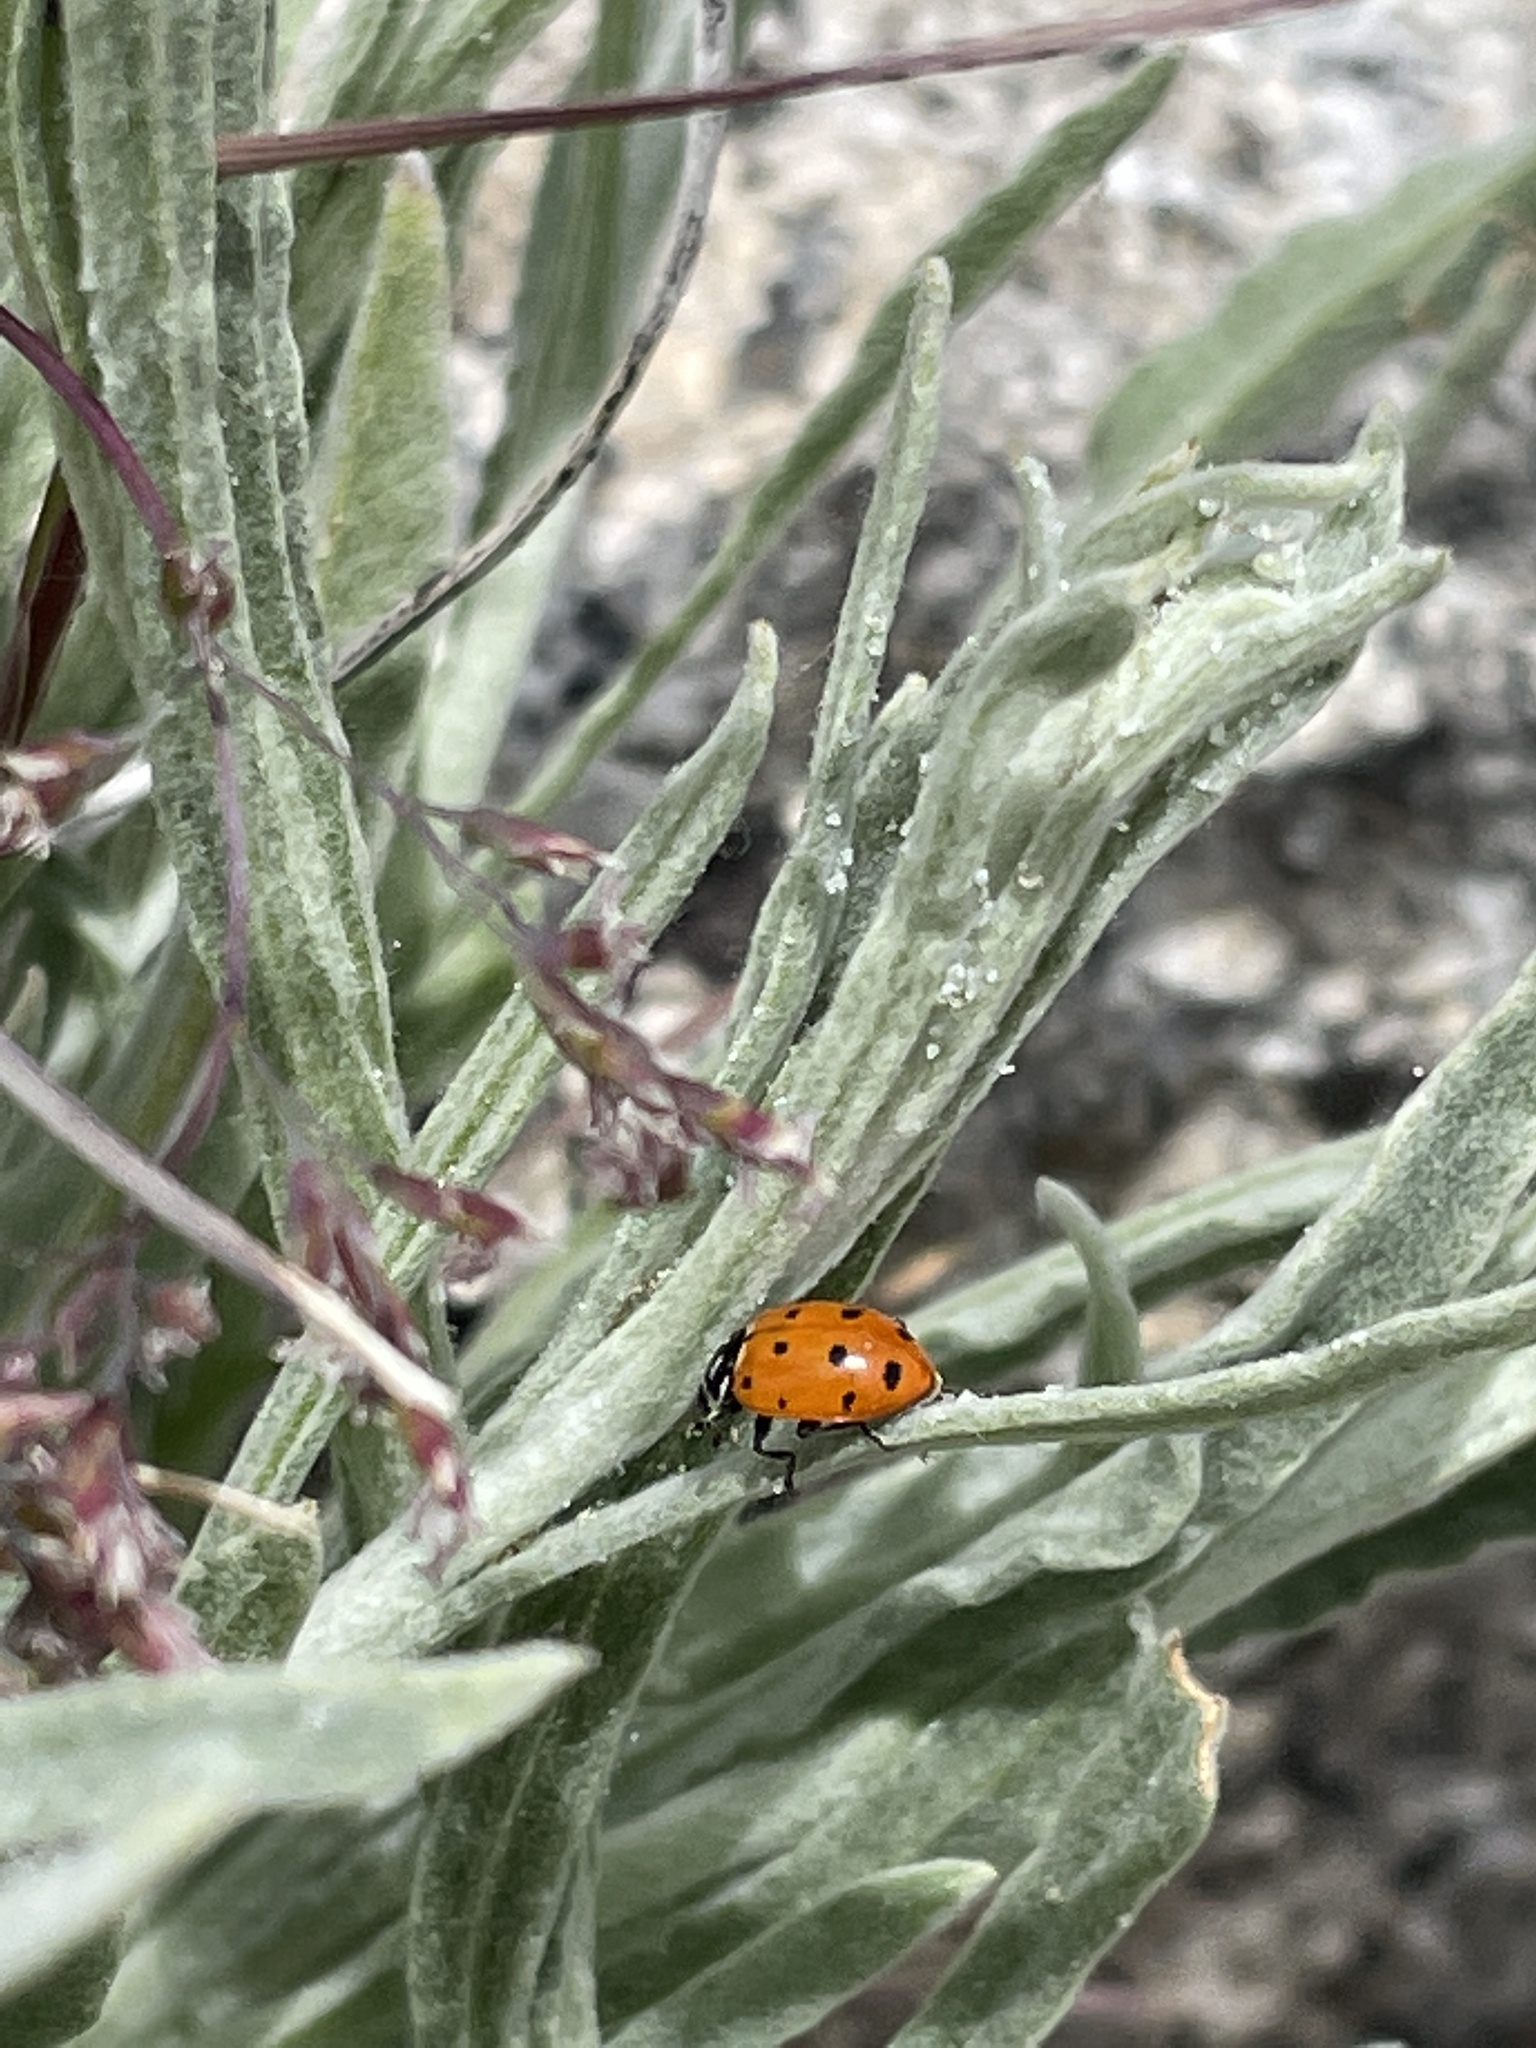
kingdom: Animalia
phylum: Arthropoda
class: Insecta
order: Coleoptera
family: Coccinellidae
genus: Hippodamia
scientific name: Hippodamia convergens
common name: Convergent lady beetle
